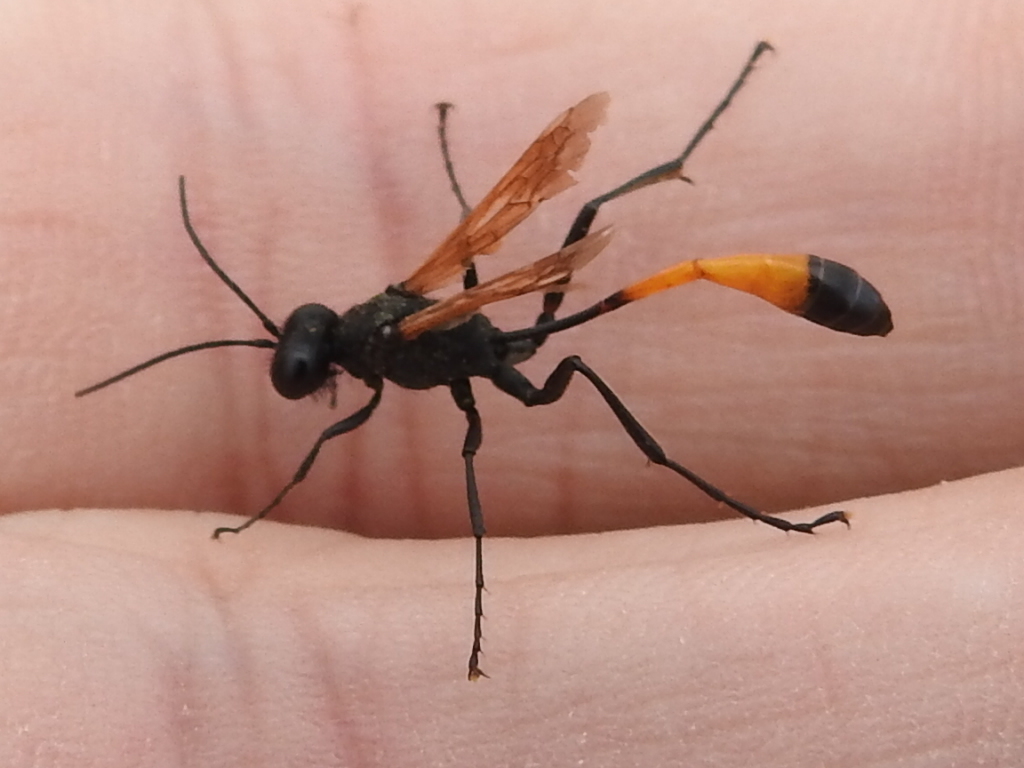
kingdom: Animalia
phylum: Arthropoda
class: Insecta
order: Hymenoptera
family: Sphecidae
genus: Ammophila
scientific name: Ammophila placida
